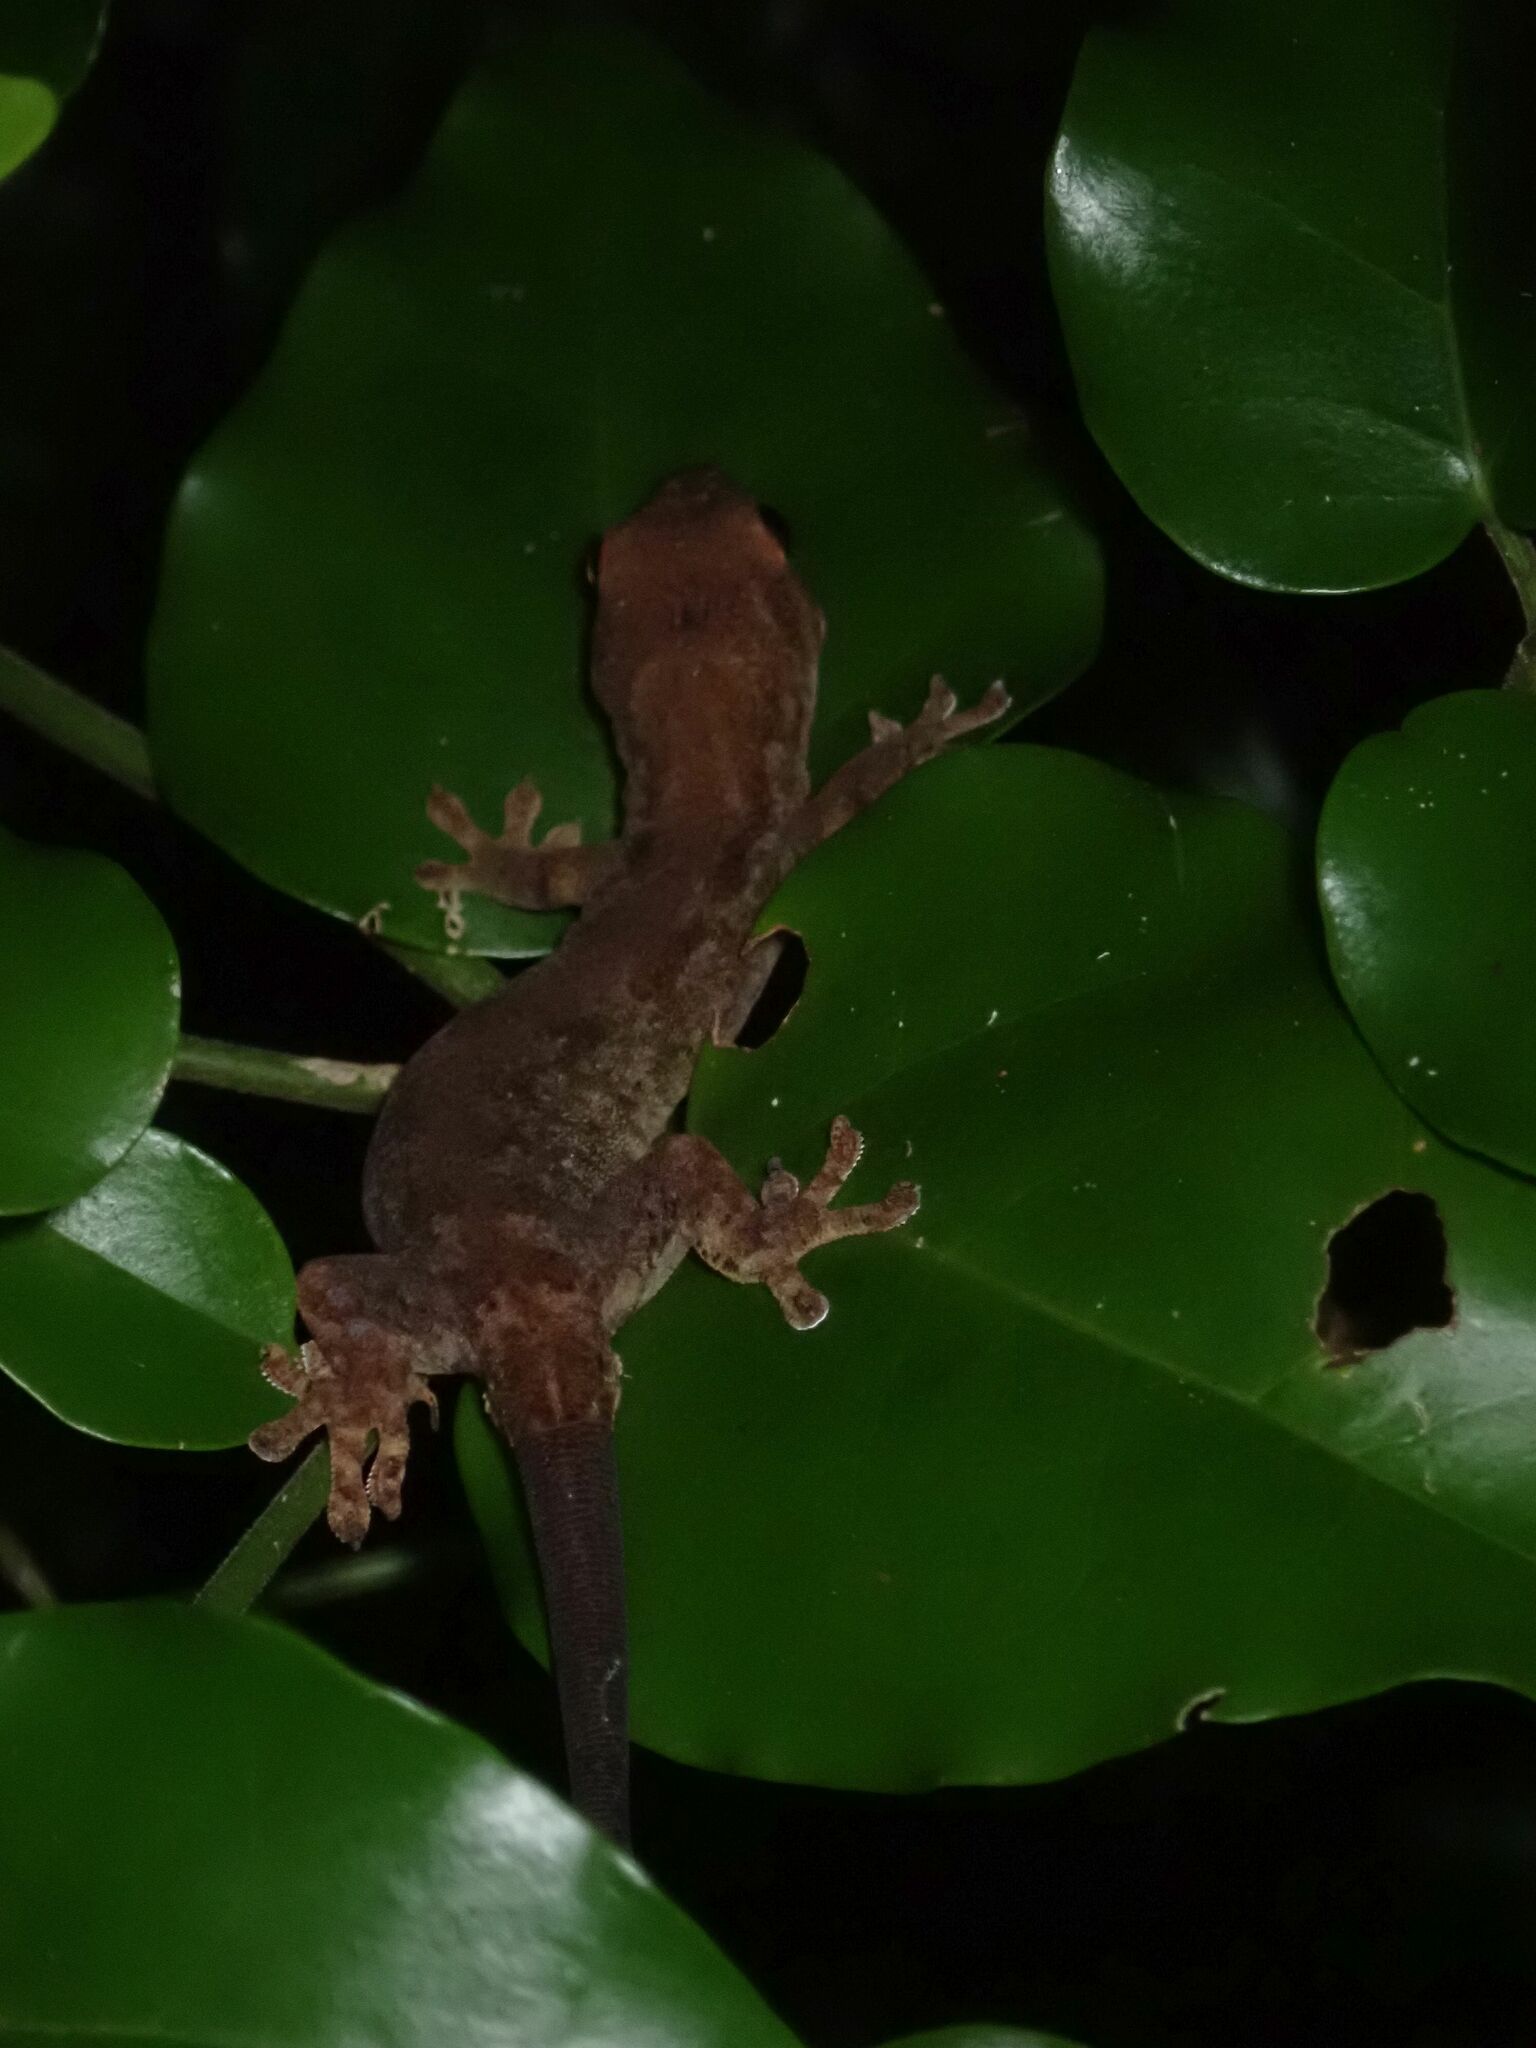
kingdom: Animalia
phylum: Chordata
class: Squamata
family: Gekkonidae
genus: Lepidodactylus
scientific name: Lepidodactylus vanuatuensis
